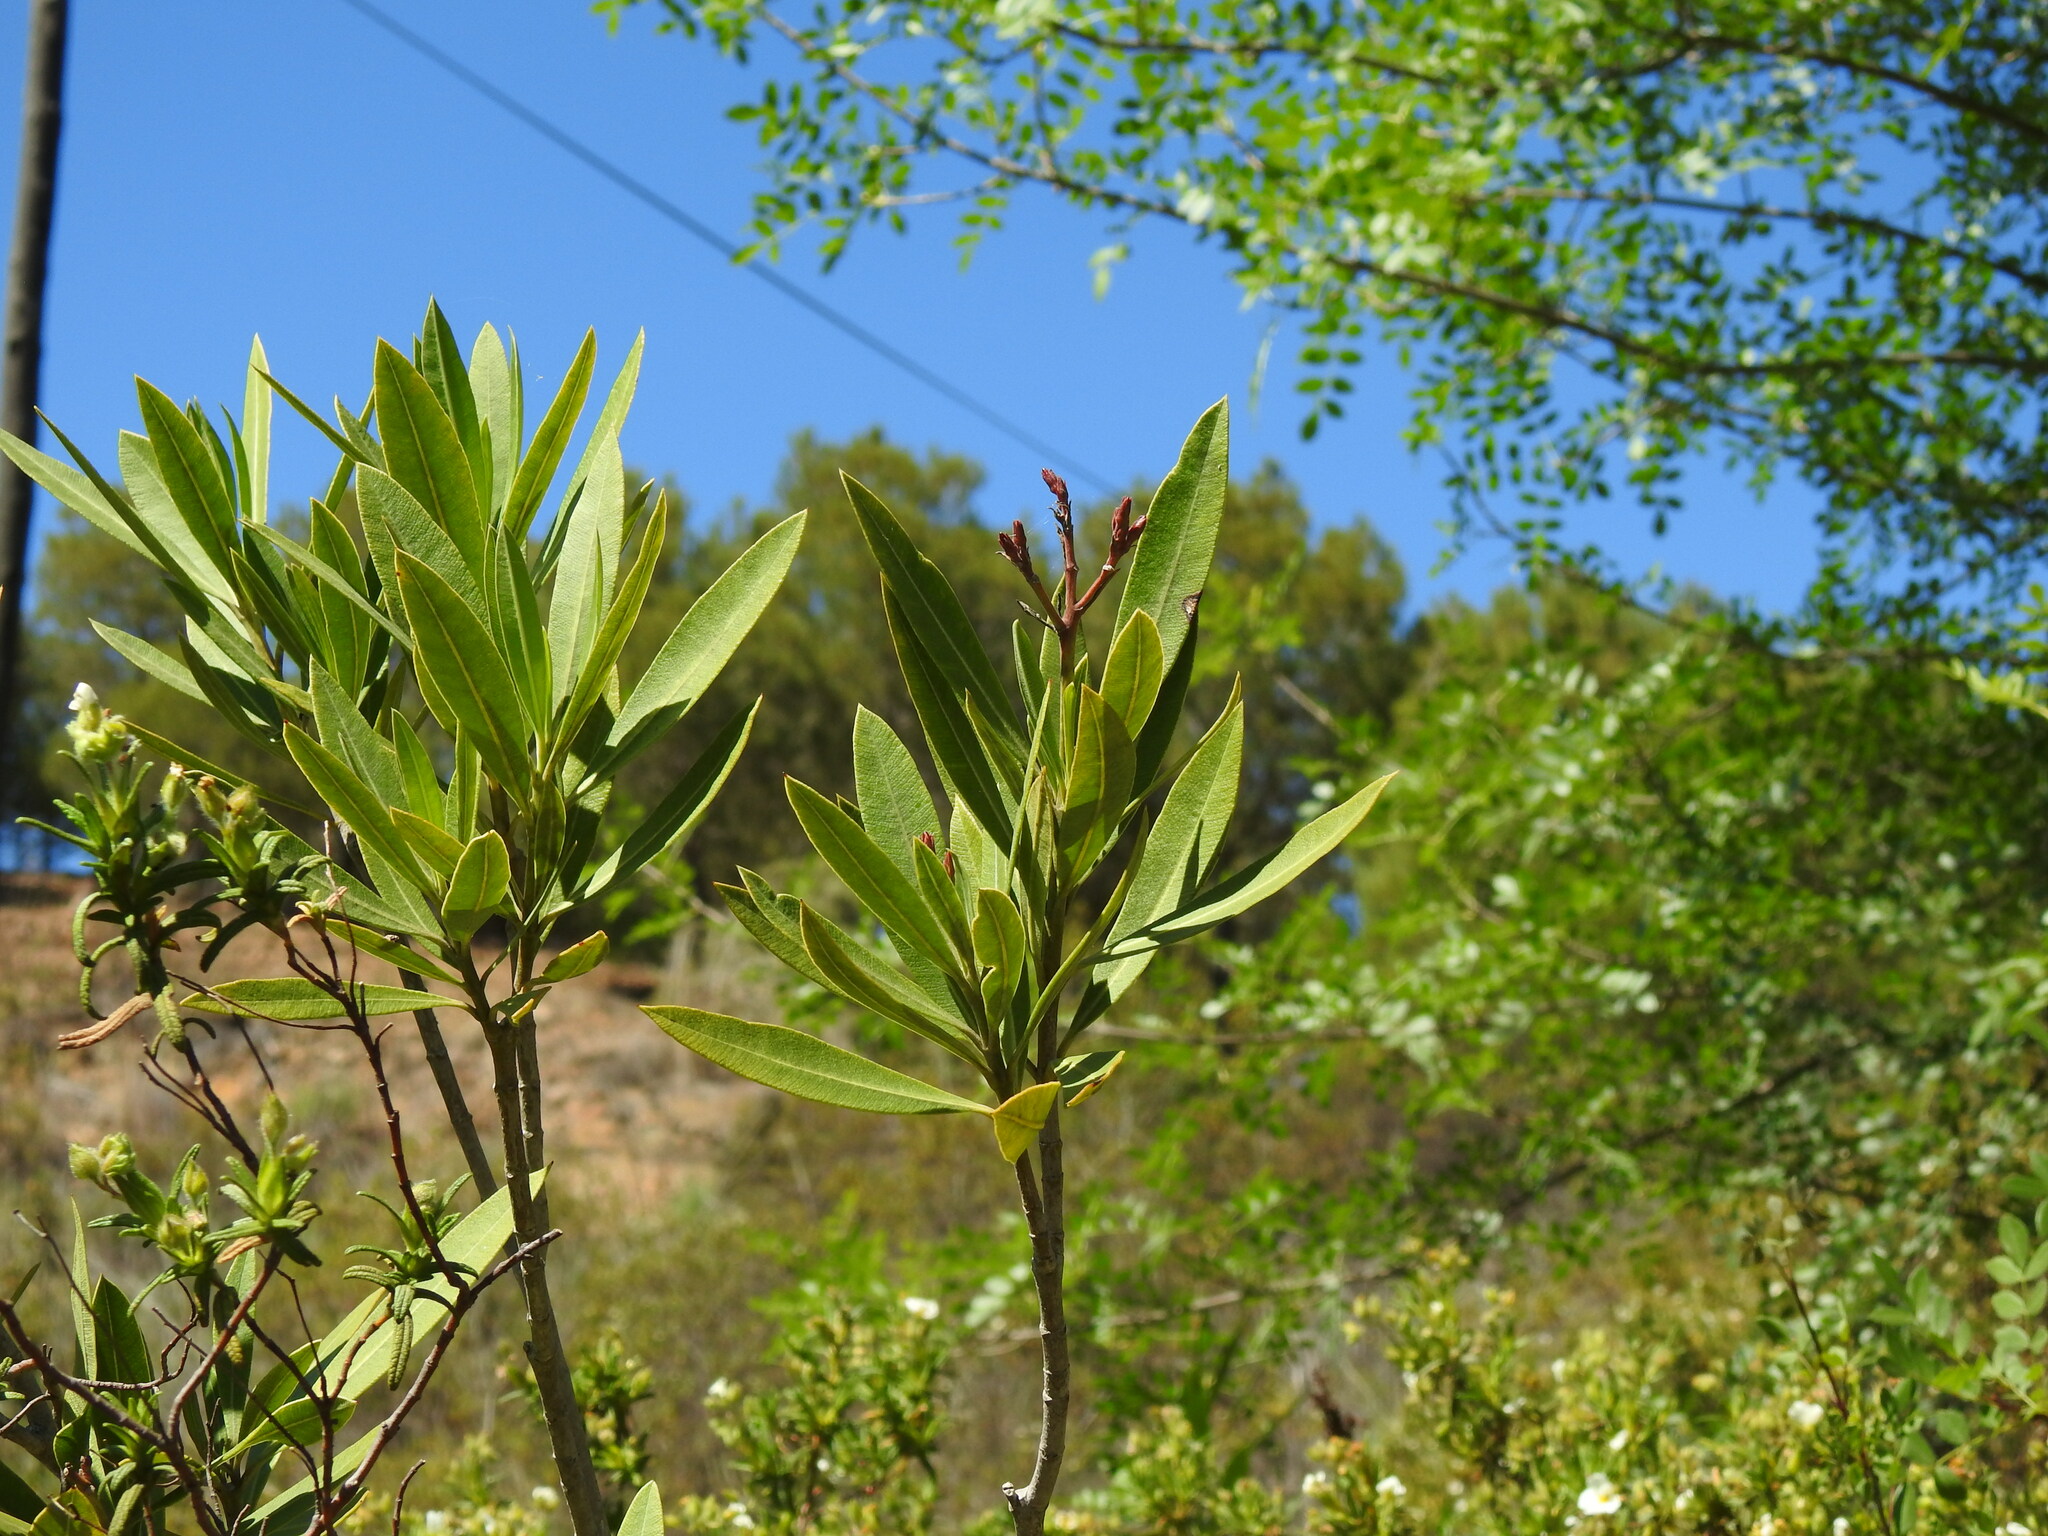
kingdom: Plantae
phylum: Tracheophyta
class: Magnoliopsida
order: Gentianales
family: Apocynaceae
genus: Nerium
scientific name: Nerium oleander
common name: Oleander
